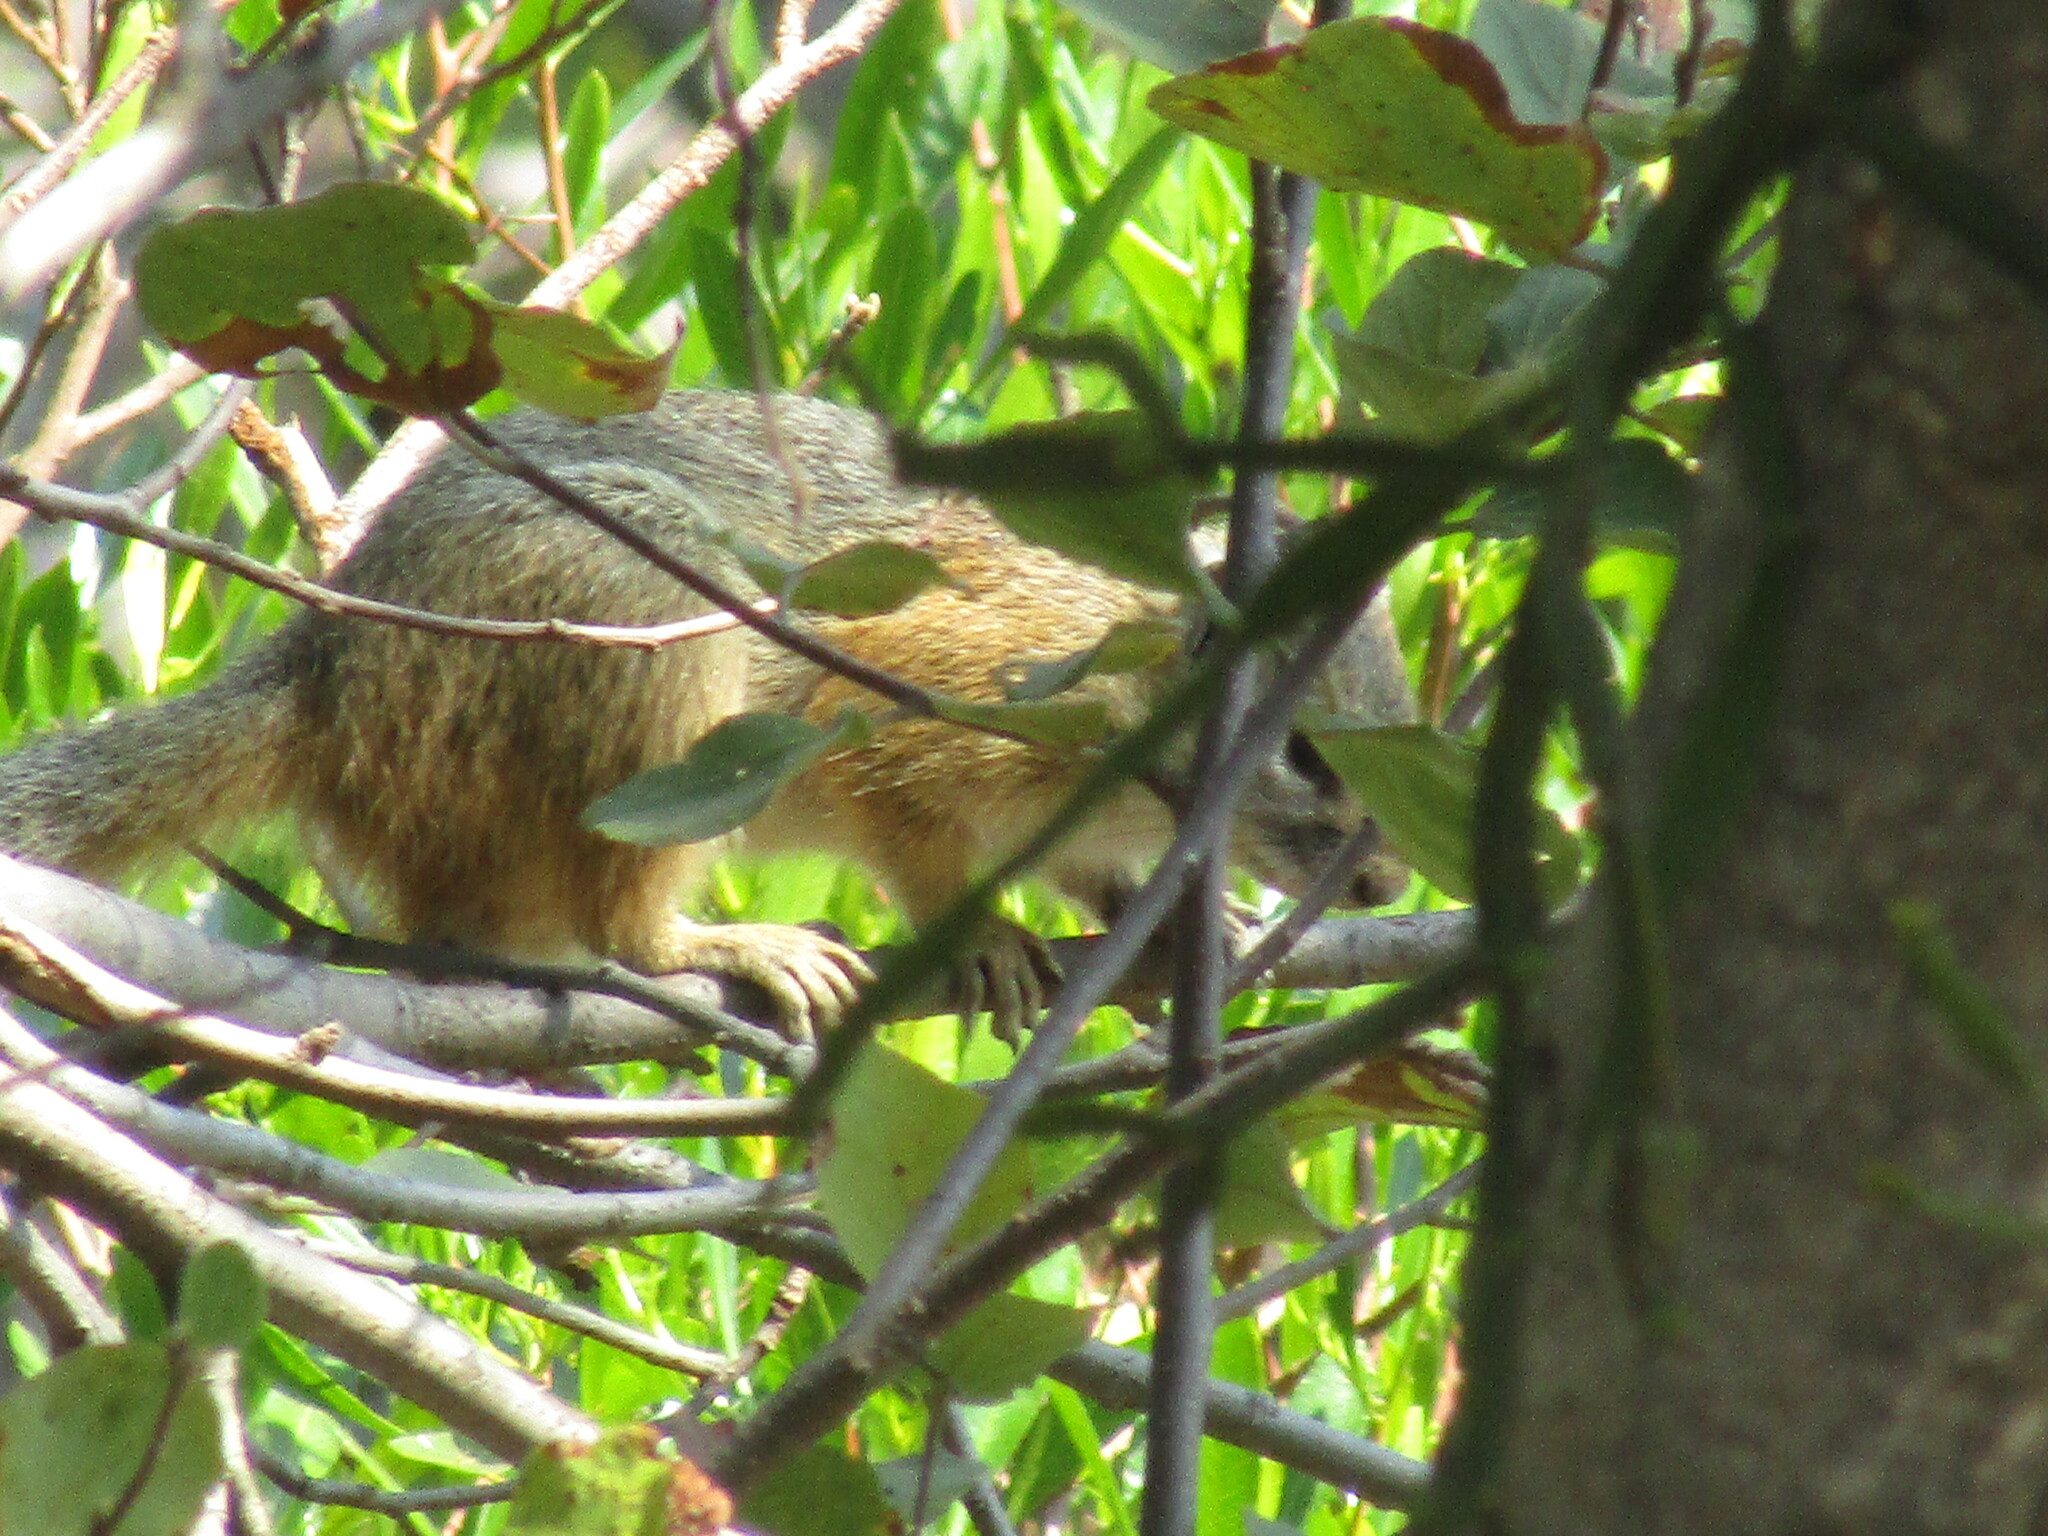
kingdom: Animalia
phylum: Chordata
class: Mammalia
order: Rodentia
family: Sciuridae
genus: Paraxerus
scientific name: Paraxerus cepapi
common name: Smith's bush squirrel
